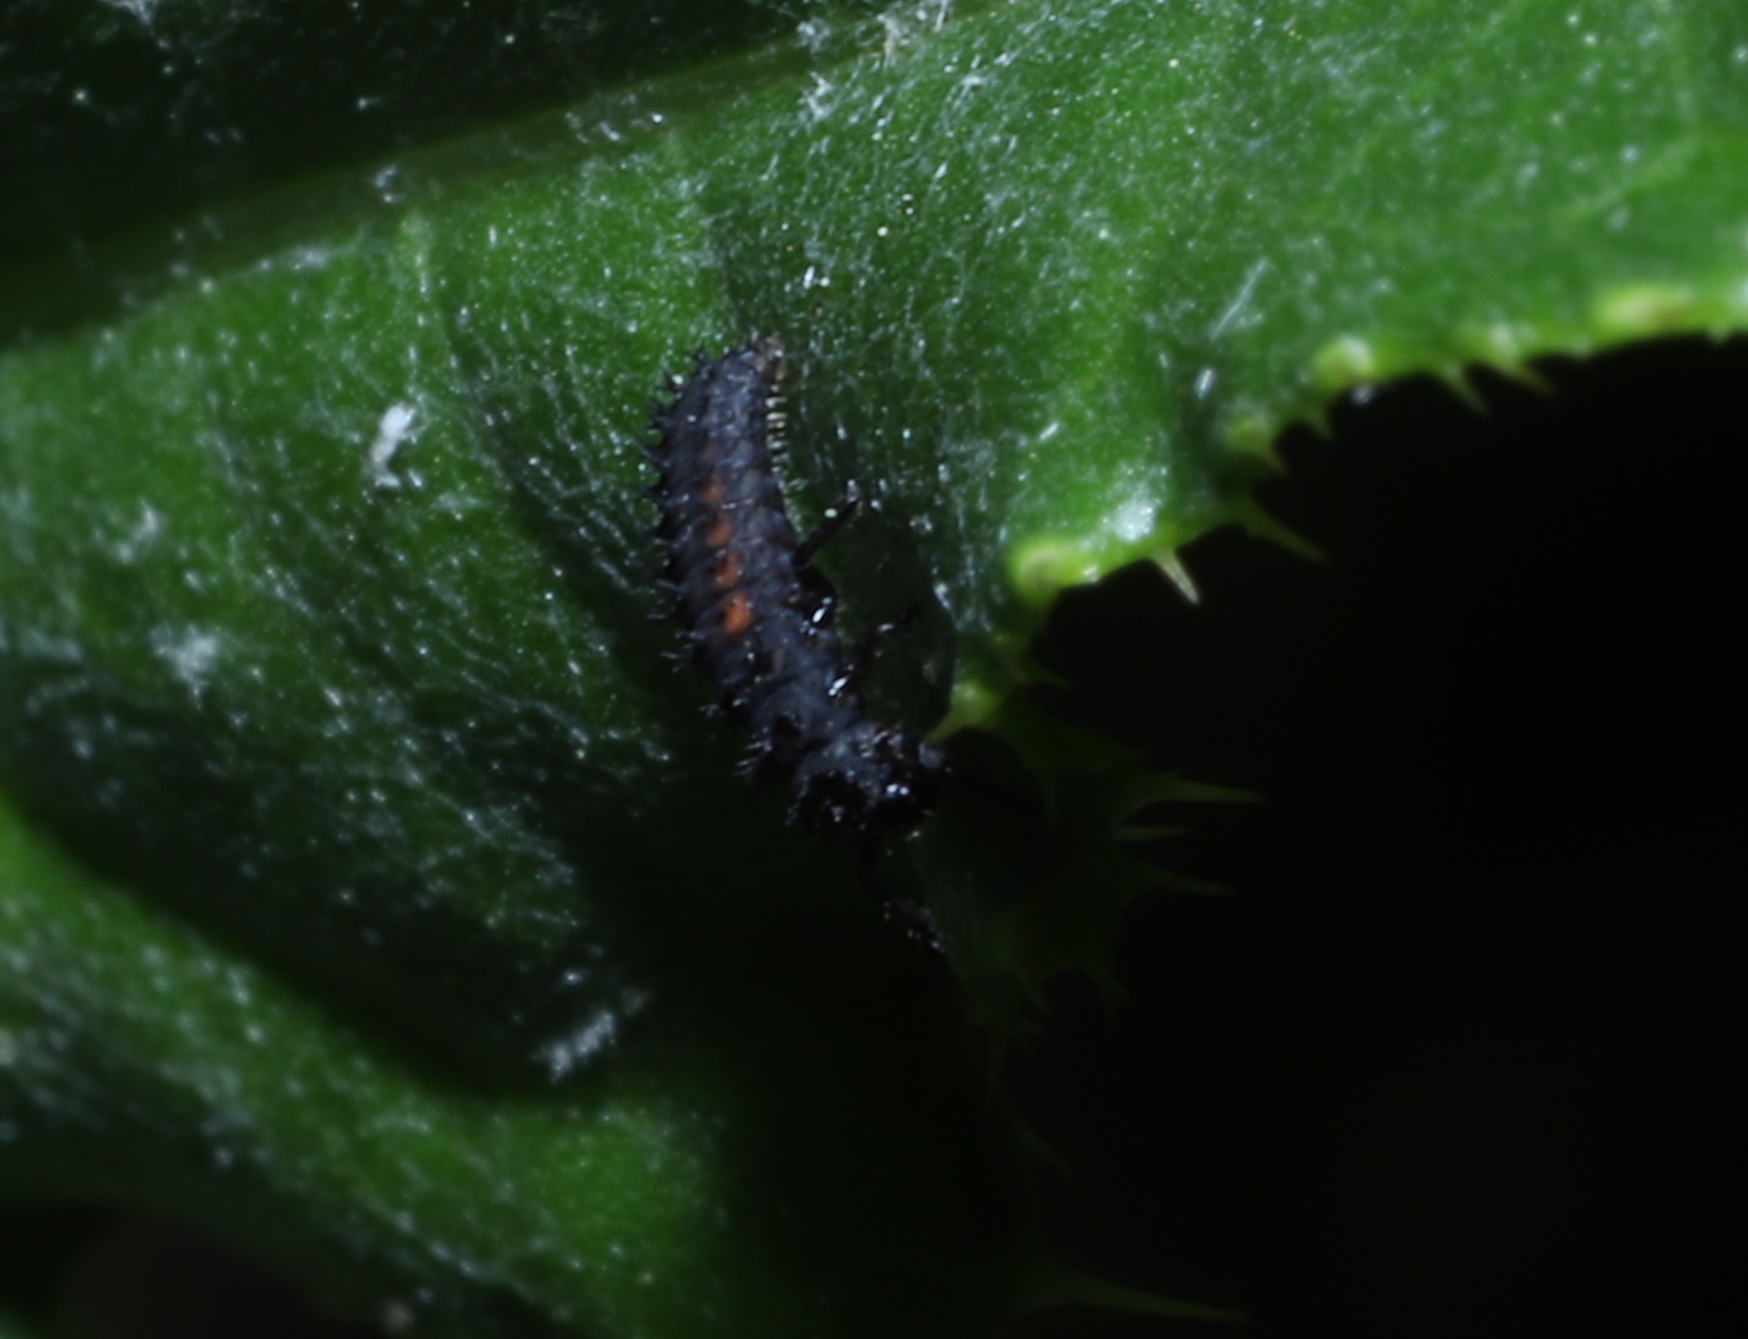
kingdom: Animalia
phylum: Arthropoda
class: Insecta
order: Coleoptera
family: Coccinellidae
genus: Harmonia
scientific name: Harmonia axyridis
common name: Harlequin ladybird
